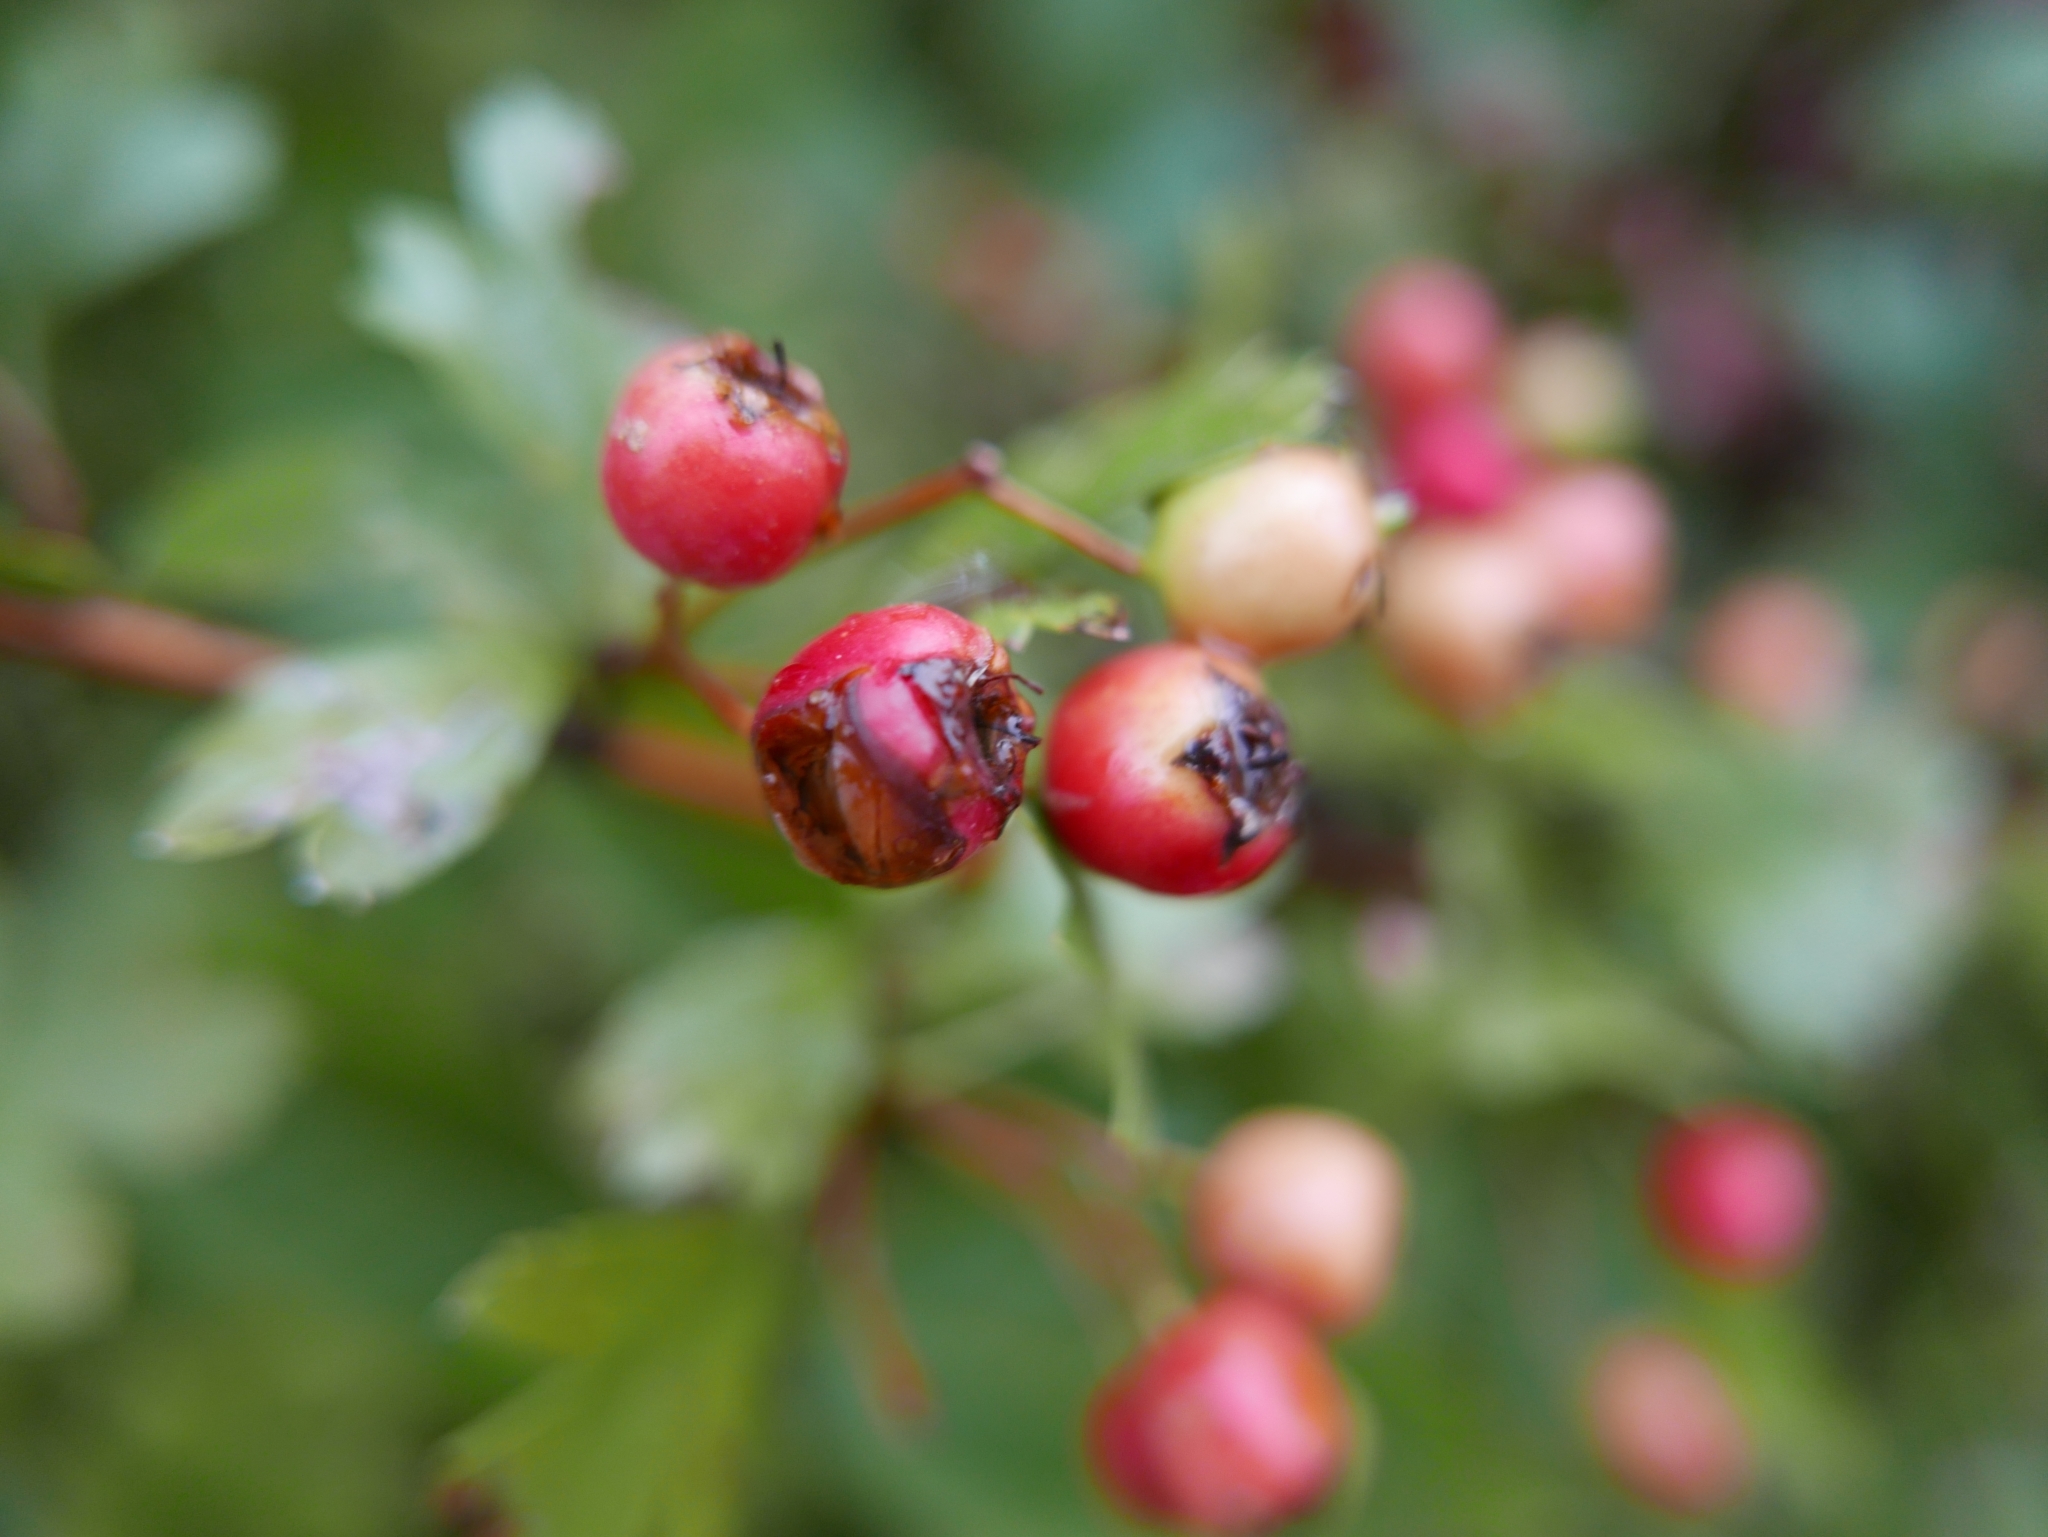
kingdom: Plantae
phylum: Tracheophyta
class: Magnoliopsida
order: Rosales
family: Rosaceae
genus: Crataegus
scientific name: Crataegus monogyna
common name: Hawthorn
